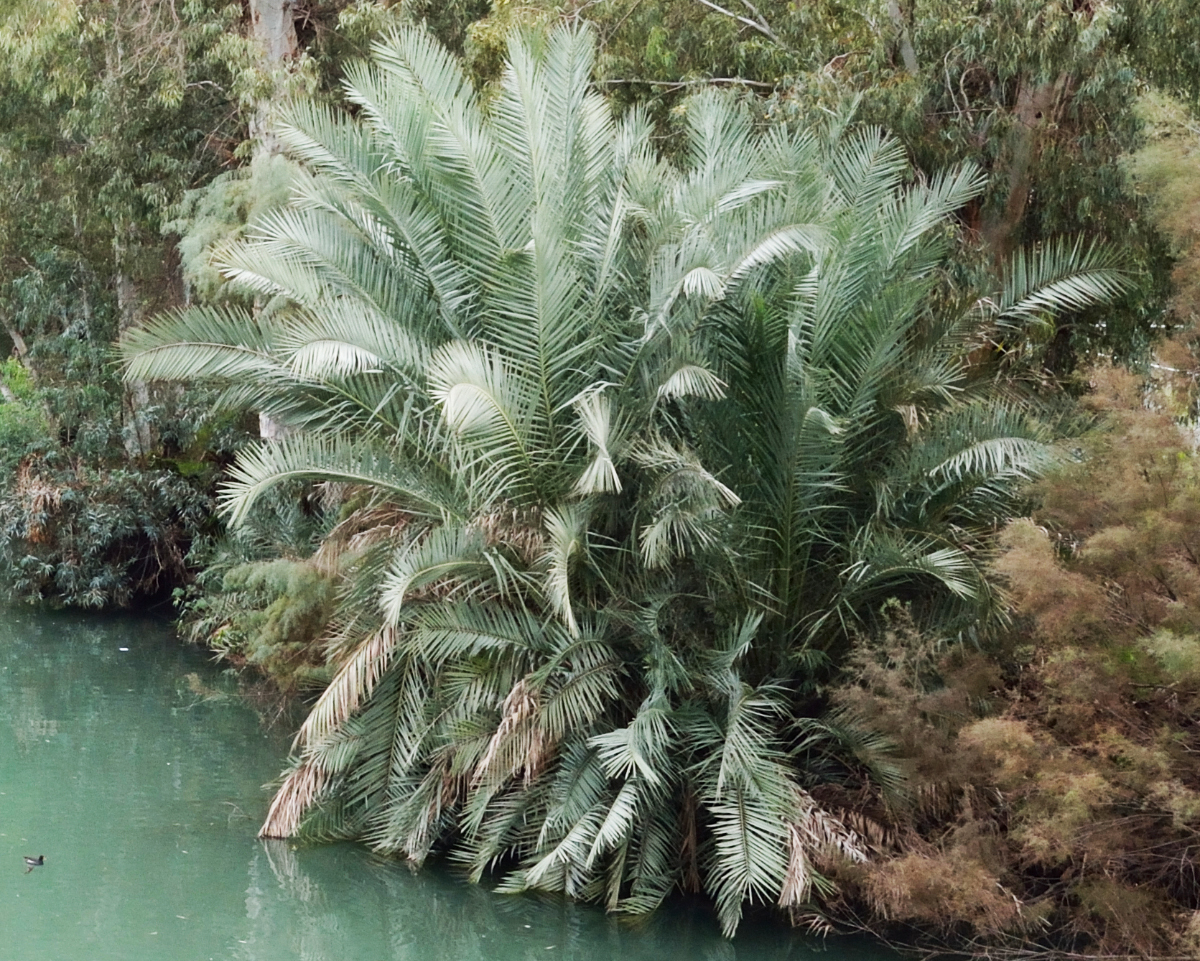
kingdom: Plantae
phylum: Tracheophyta
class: Liliopsida
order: Arecales
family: Arecaceae
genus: Phoenix
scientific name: Phoenix dactylifera
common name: Date palm
